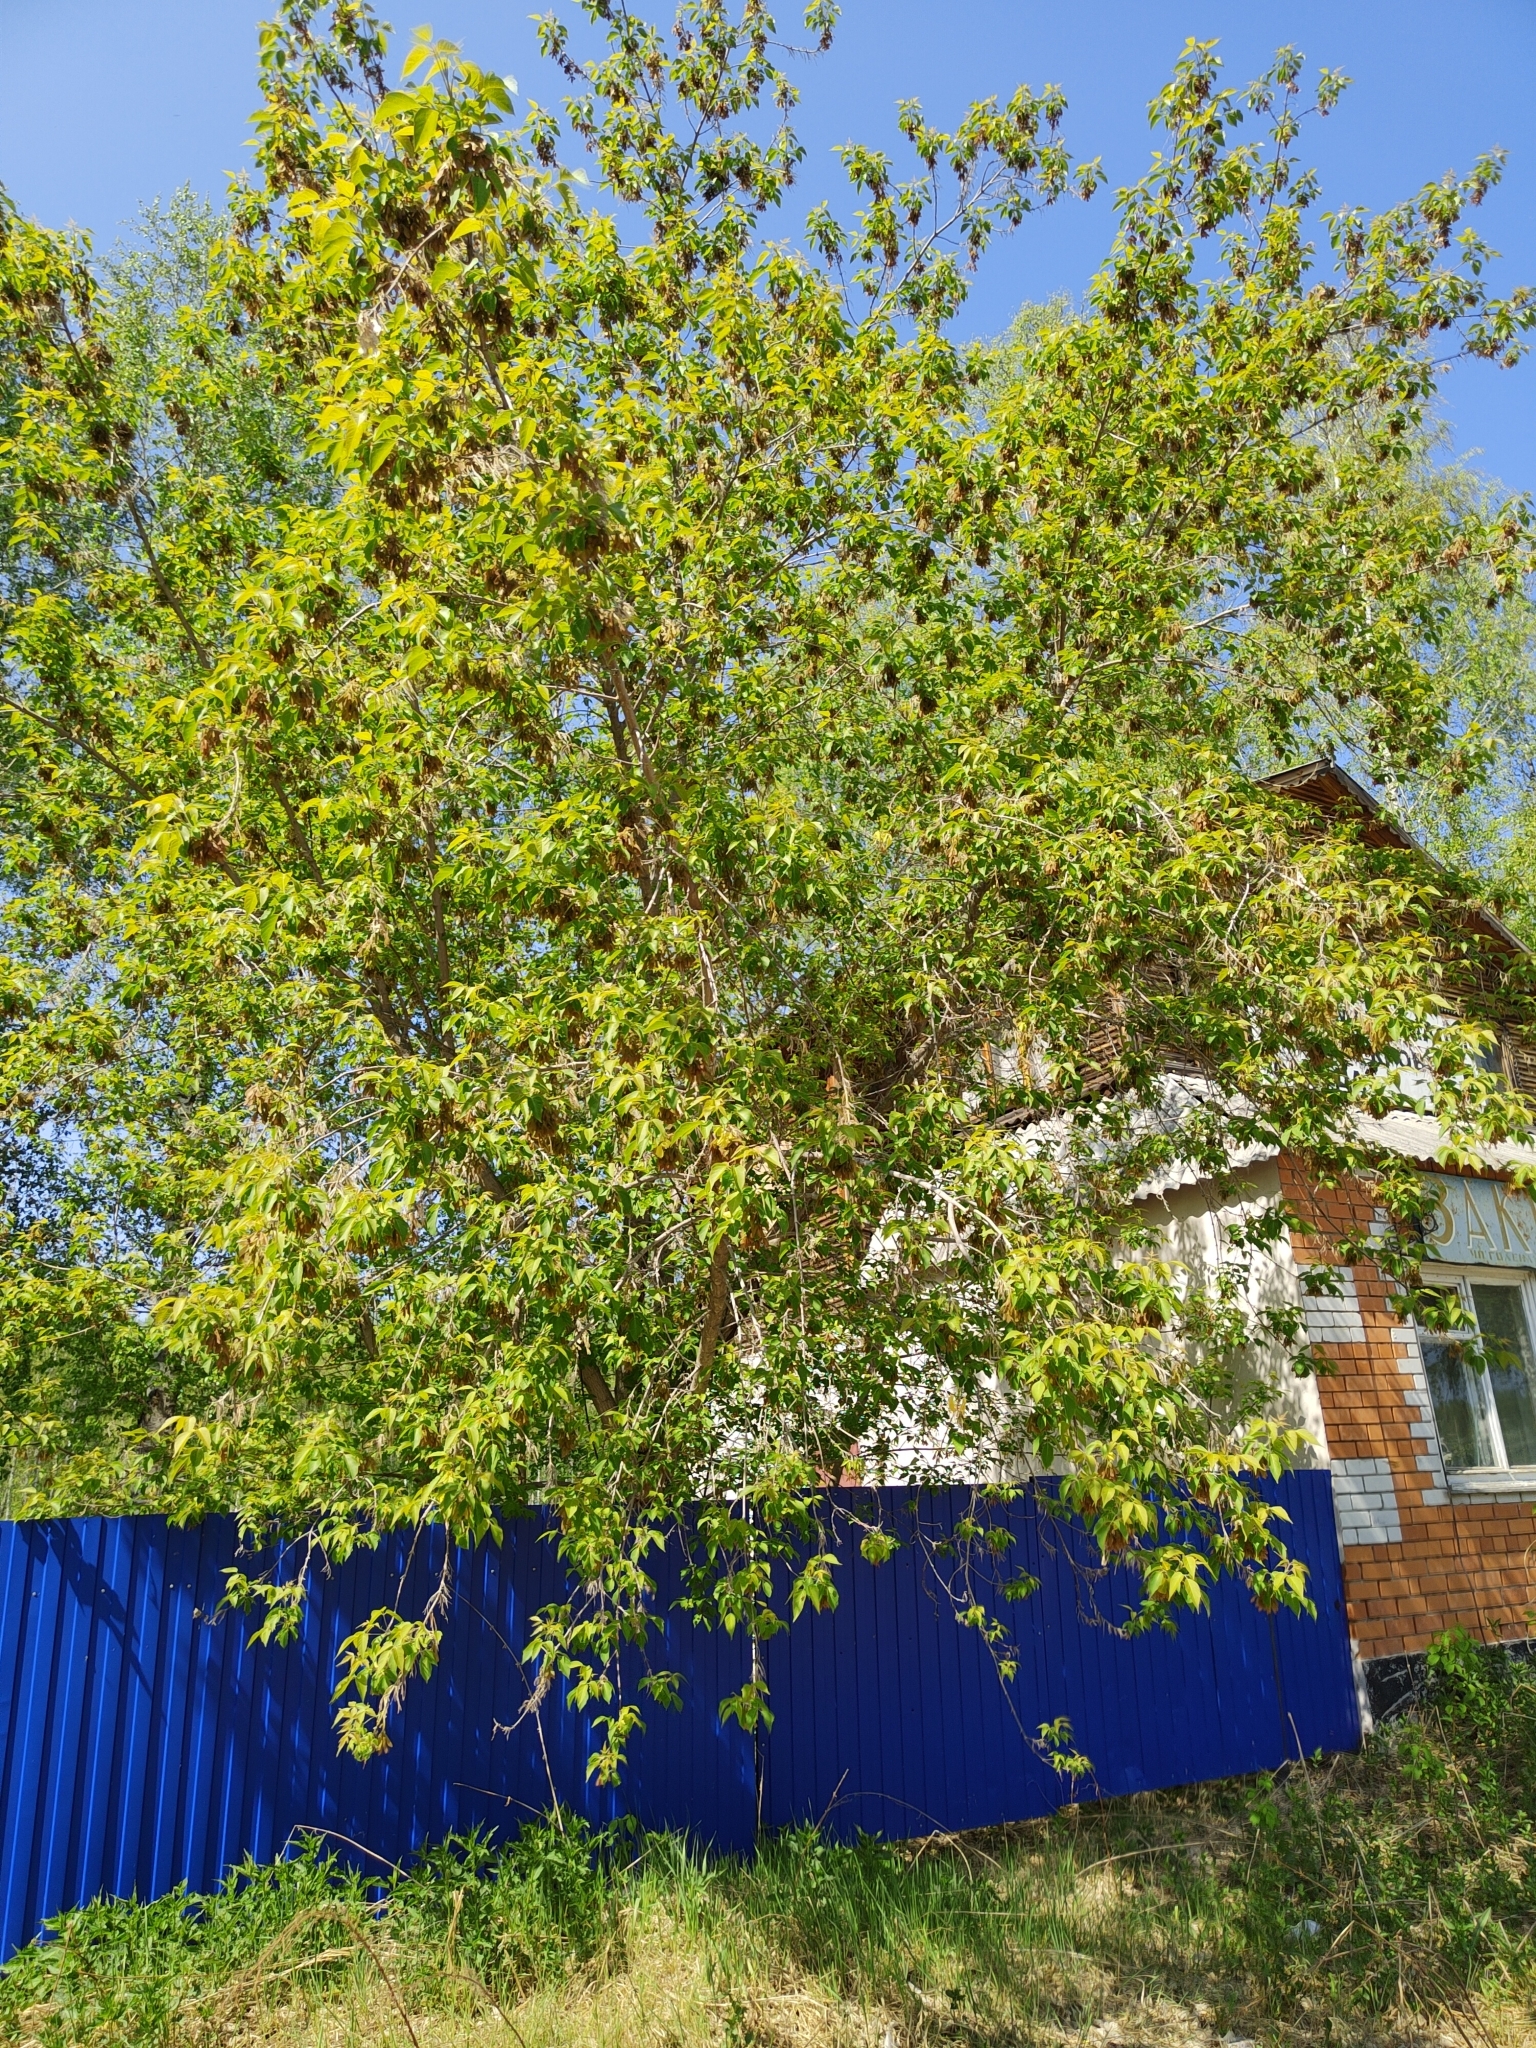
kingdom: Plantae
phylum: Tracheophyta
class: Magnoliopsida
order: Sapindales
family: Sapindaceae
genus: Acer
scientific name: Acer negundo
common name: Ashleaf maple
